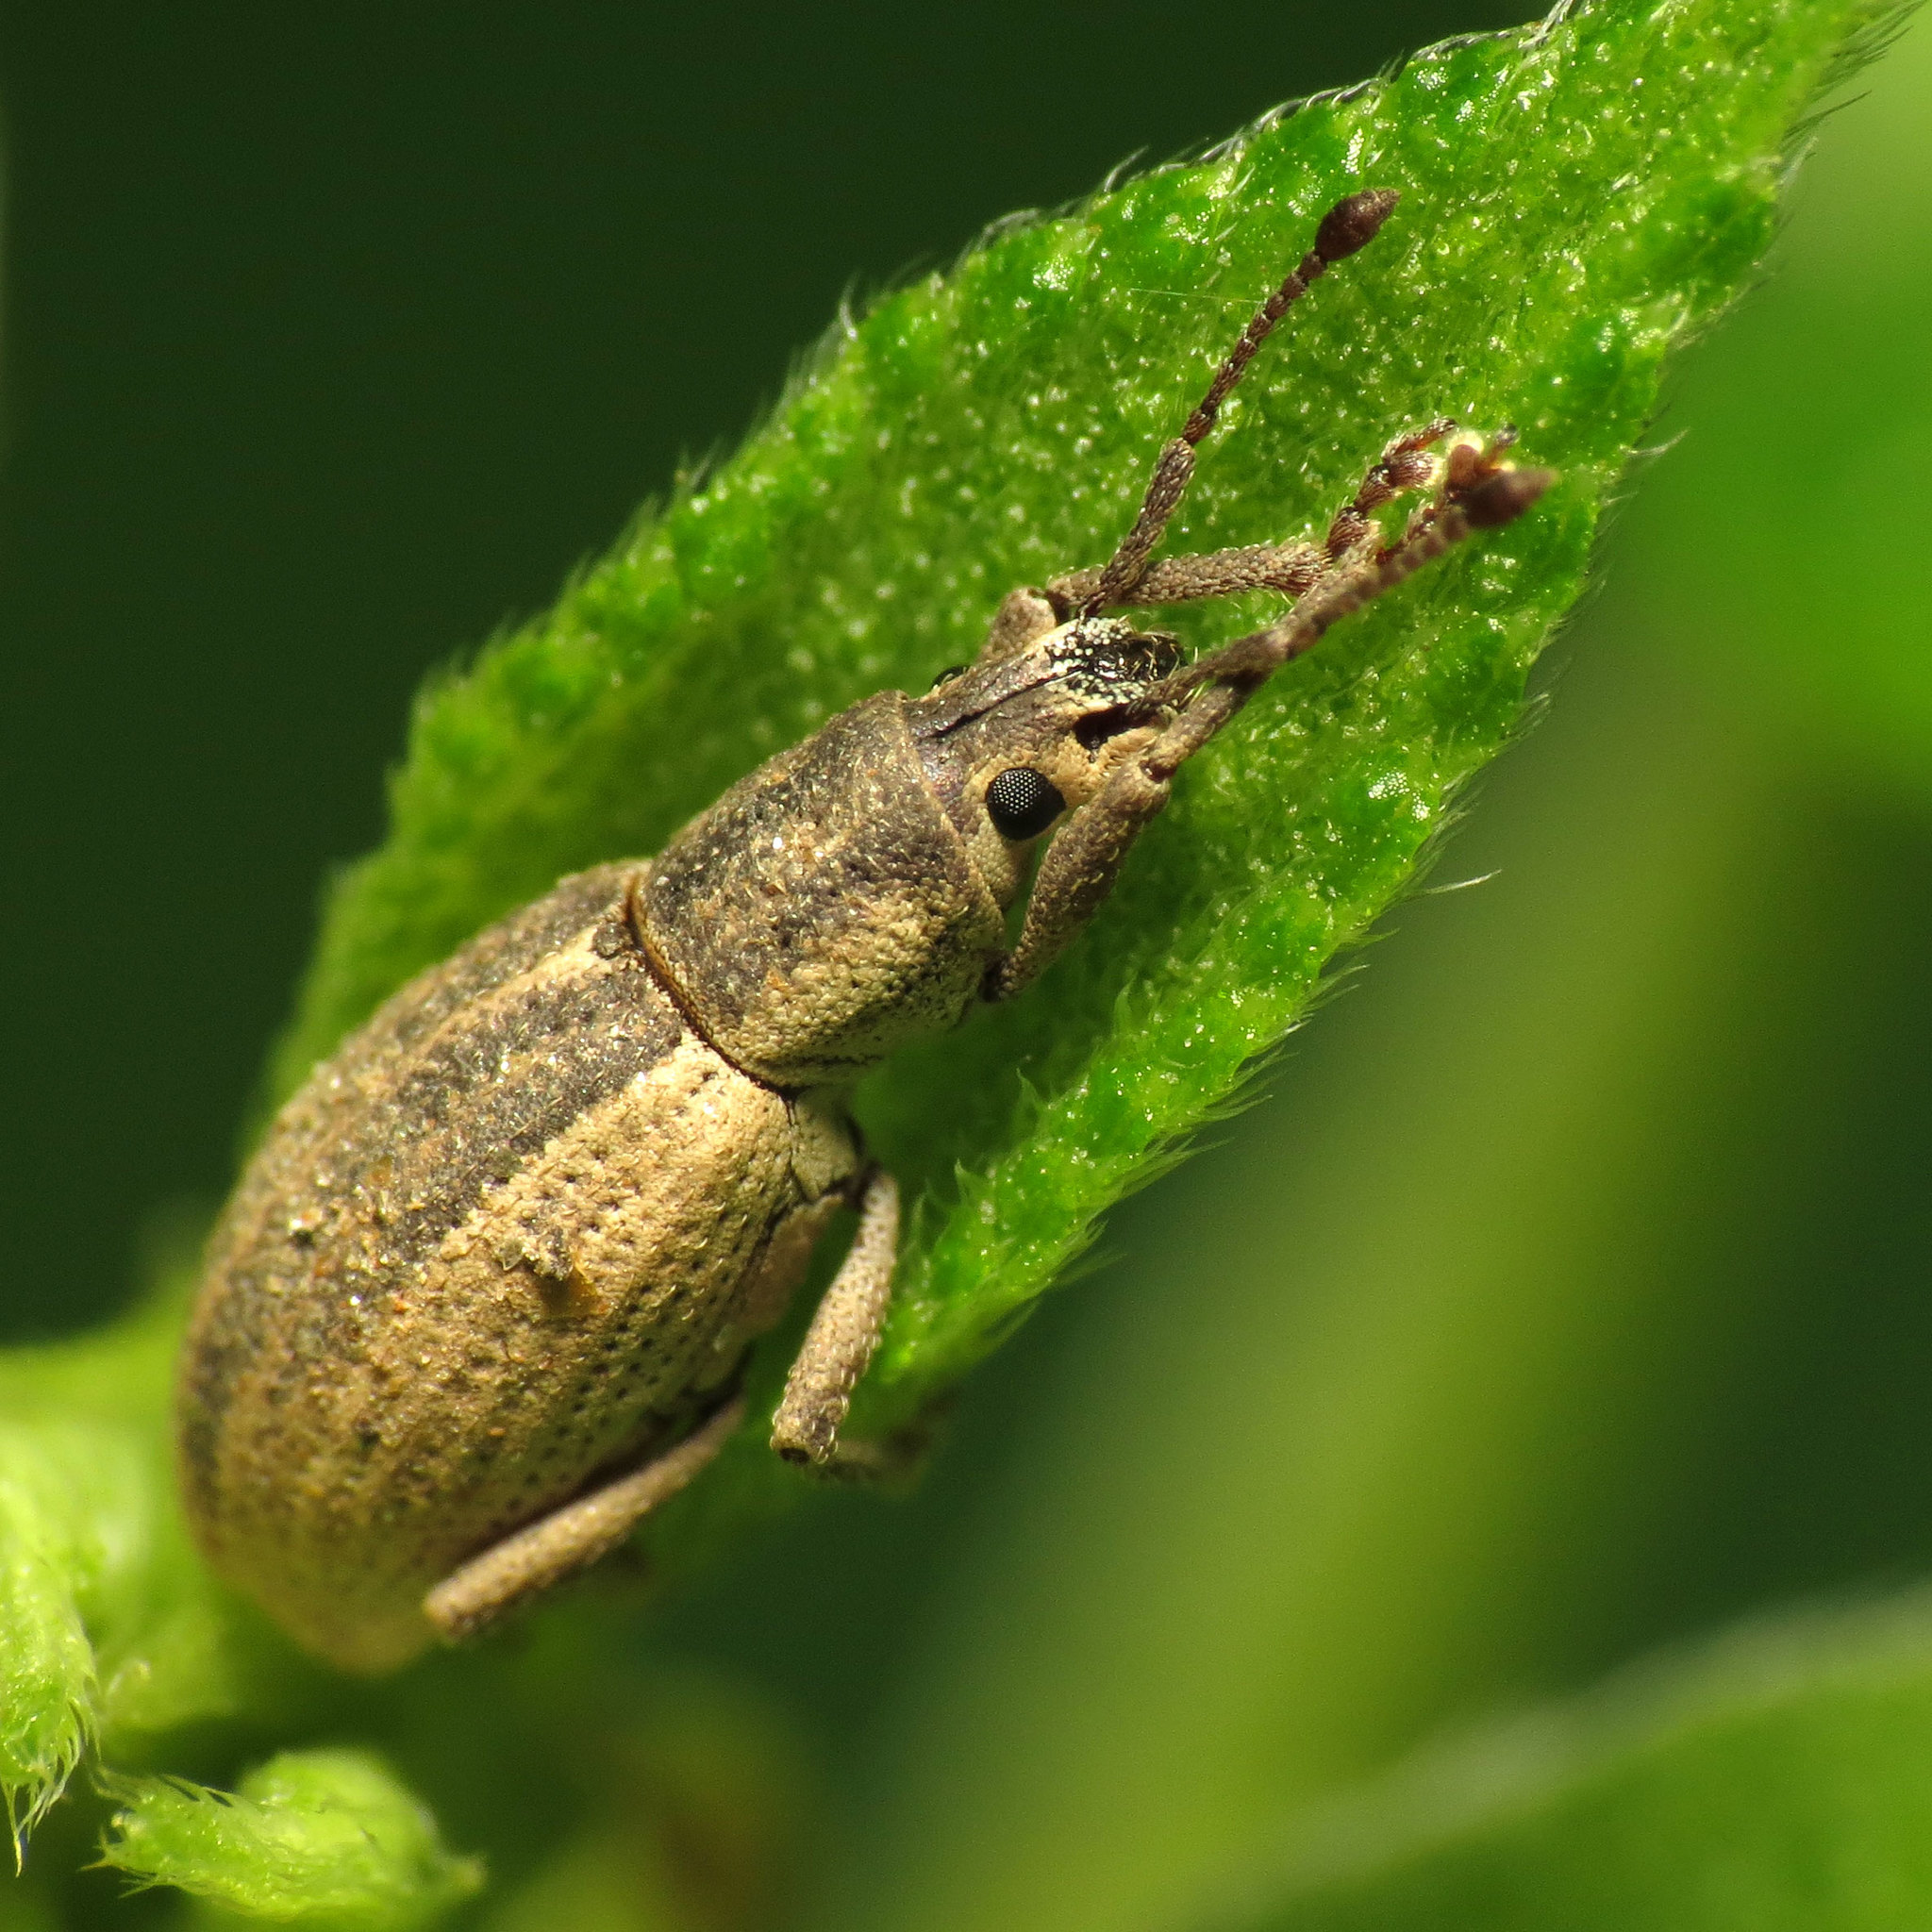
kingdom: Animalia
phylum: Arthropoda
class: Insecta
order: Coleoptera
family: Curculionidae
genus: Aphrastus
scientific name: Aphrastus taeniatus
